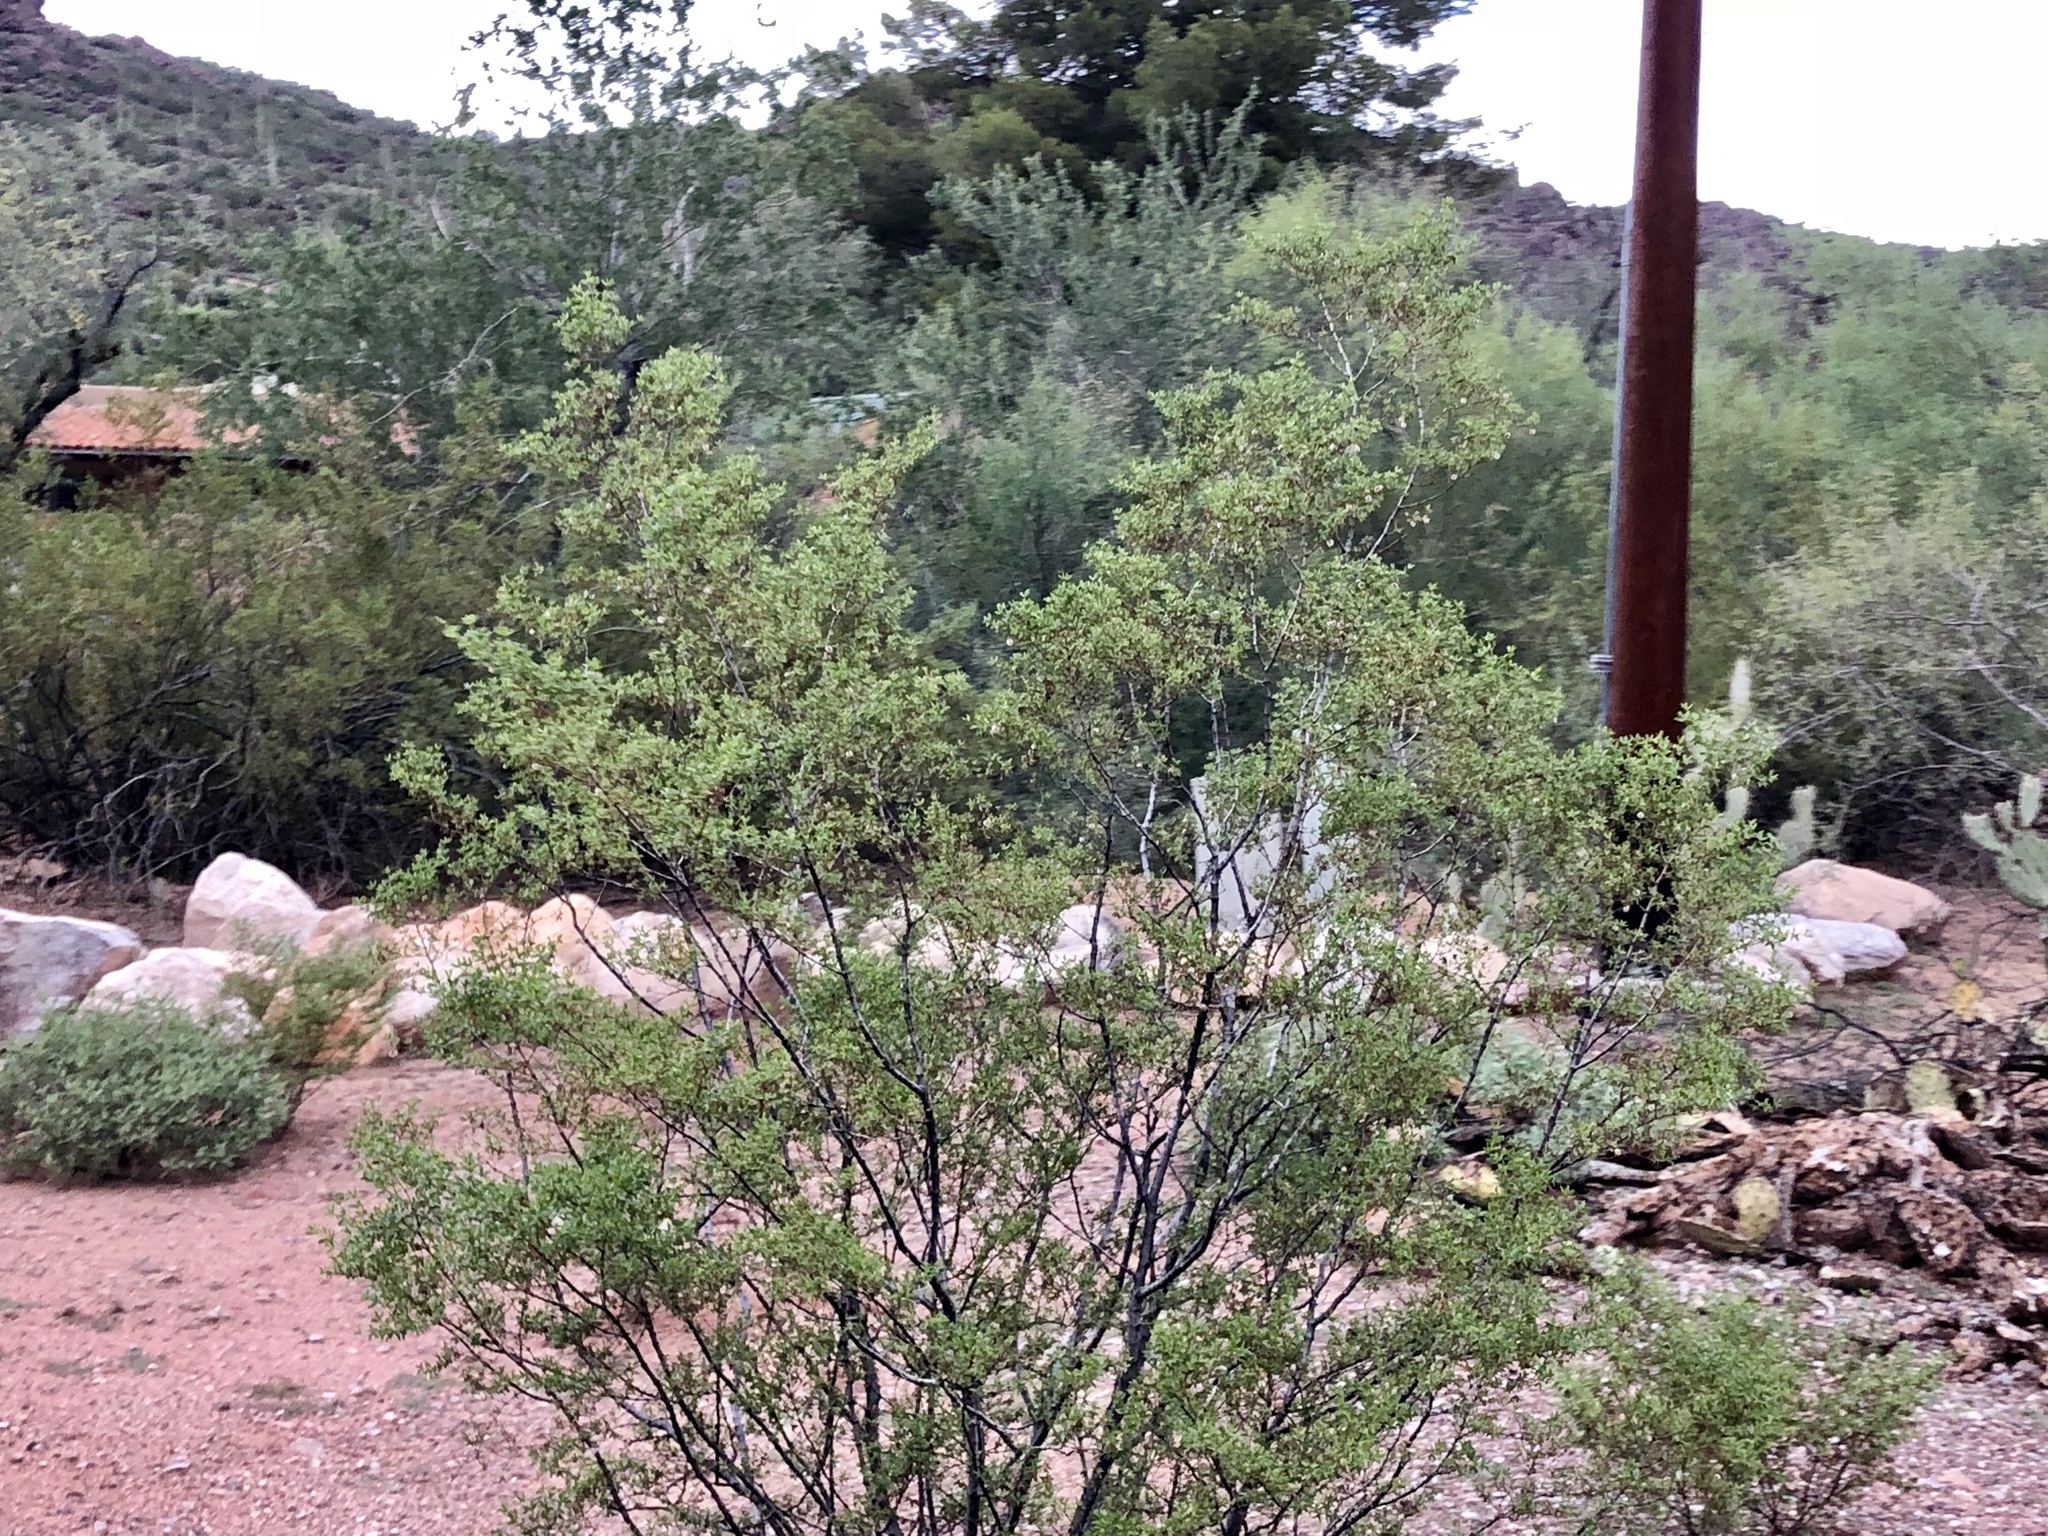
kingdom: Plantae
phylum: Tracheophyta
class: Magnoliopsida
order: Zygophyllales
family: Zygophyllaceae
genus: Larrea
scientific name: Larrea tridentata
